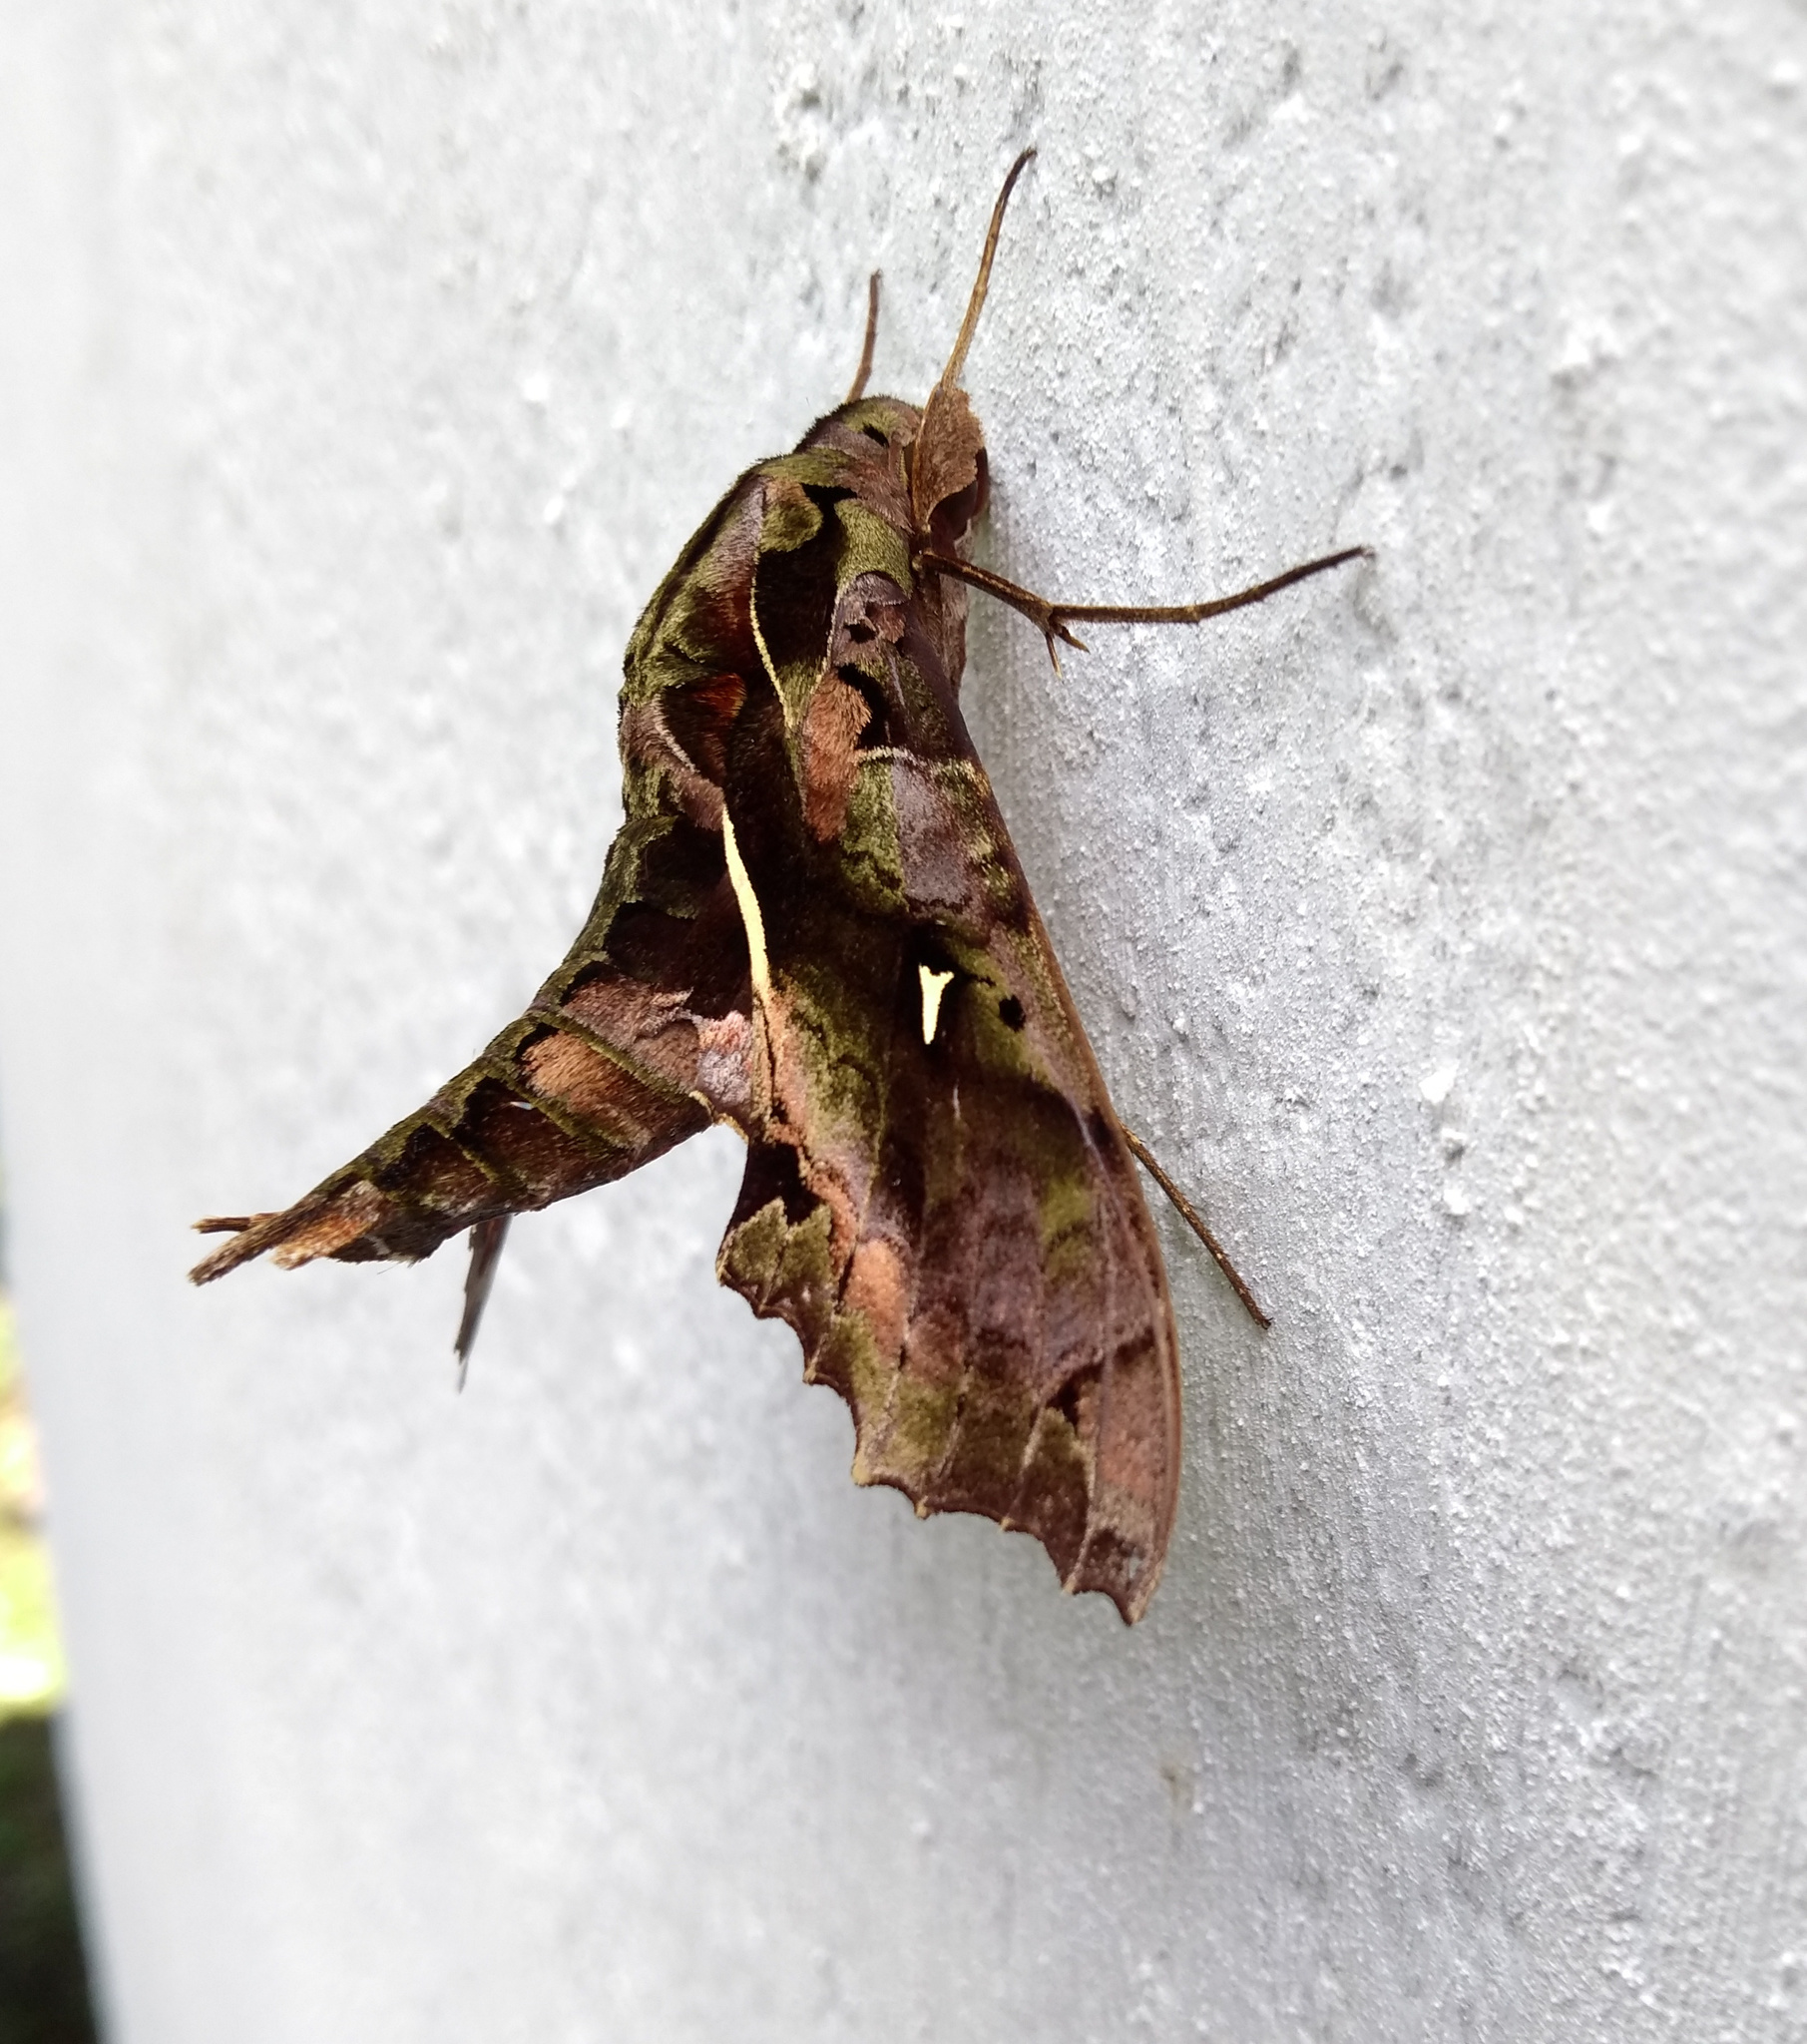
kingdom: Animalia
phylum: Arthropoda
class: Insecta
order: Lepidoptera
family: Sphingidae
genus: Hemeroplanes
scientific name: Hemeroplanes ornatus
